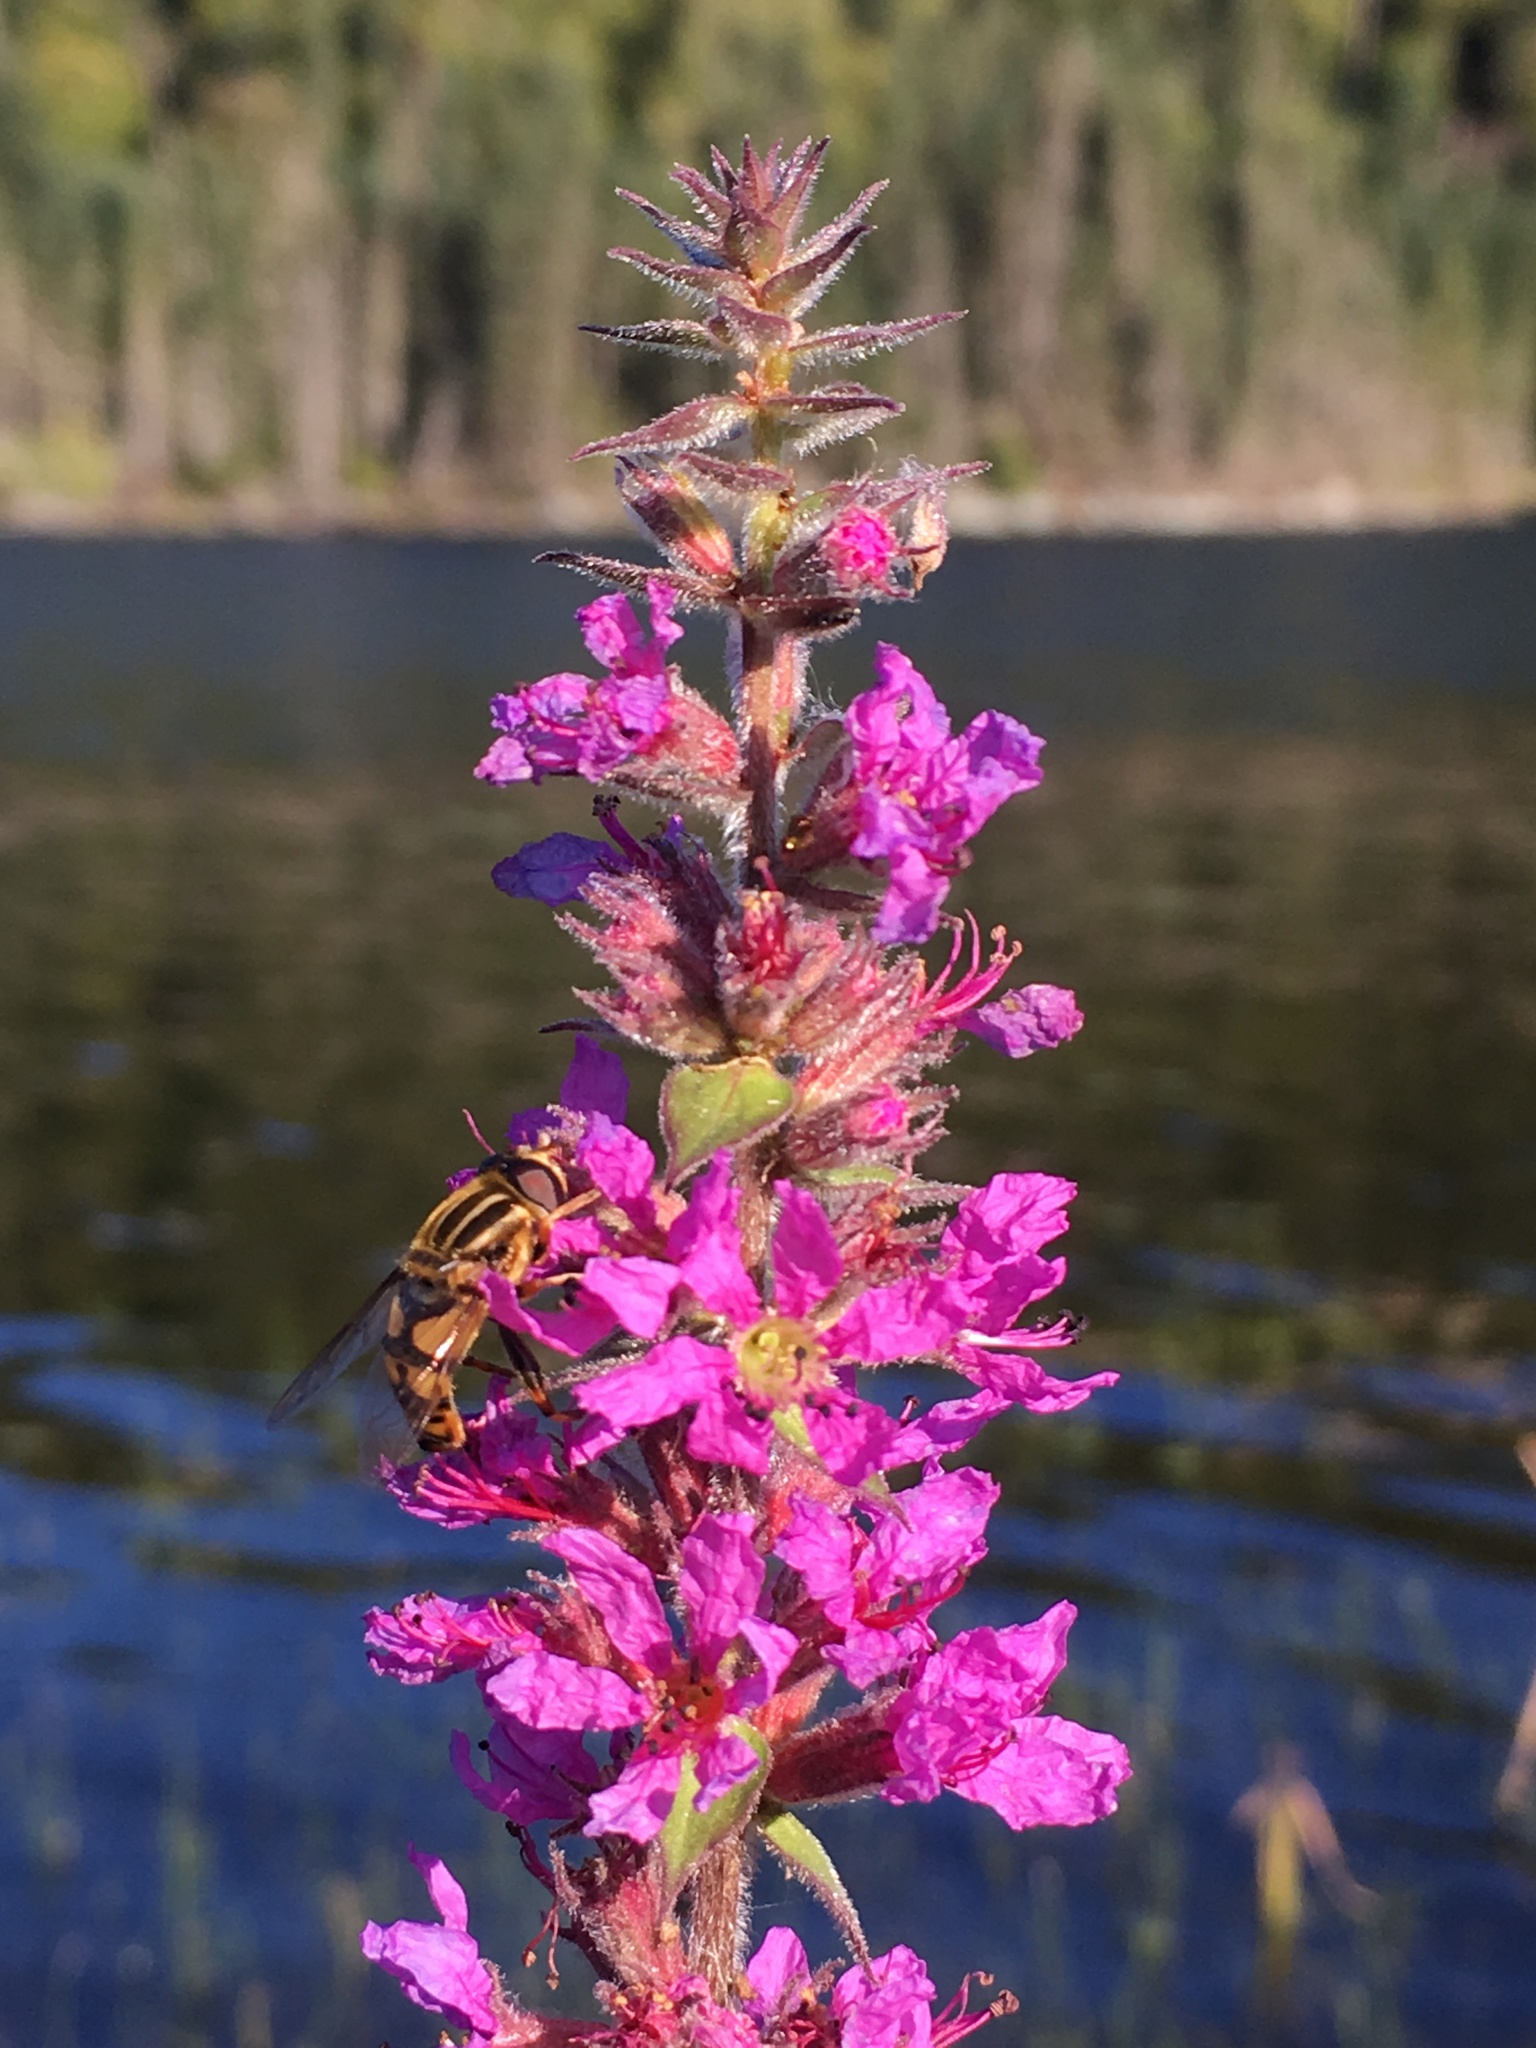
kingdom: Animalia
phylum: Arthropoda
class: Insecta
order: Diptera
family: Syrphidae
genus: Helophilus
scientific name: Helophilus fasciatus
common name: Narrow-headed marsh fly
